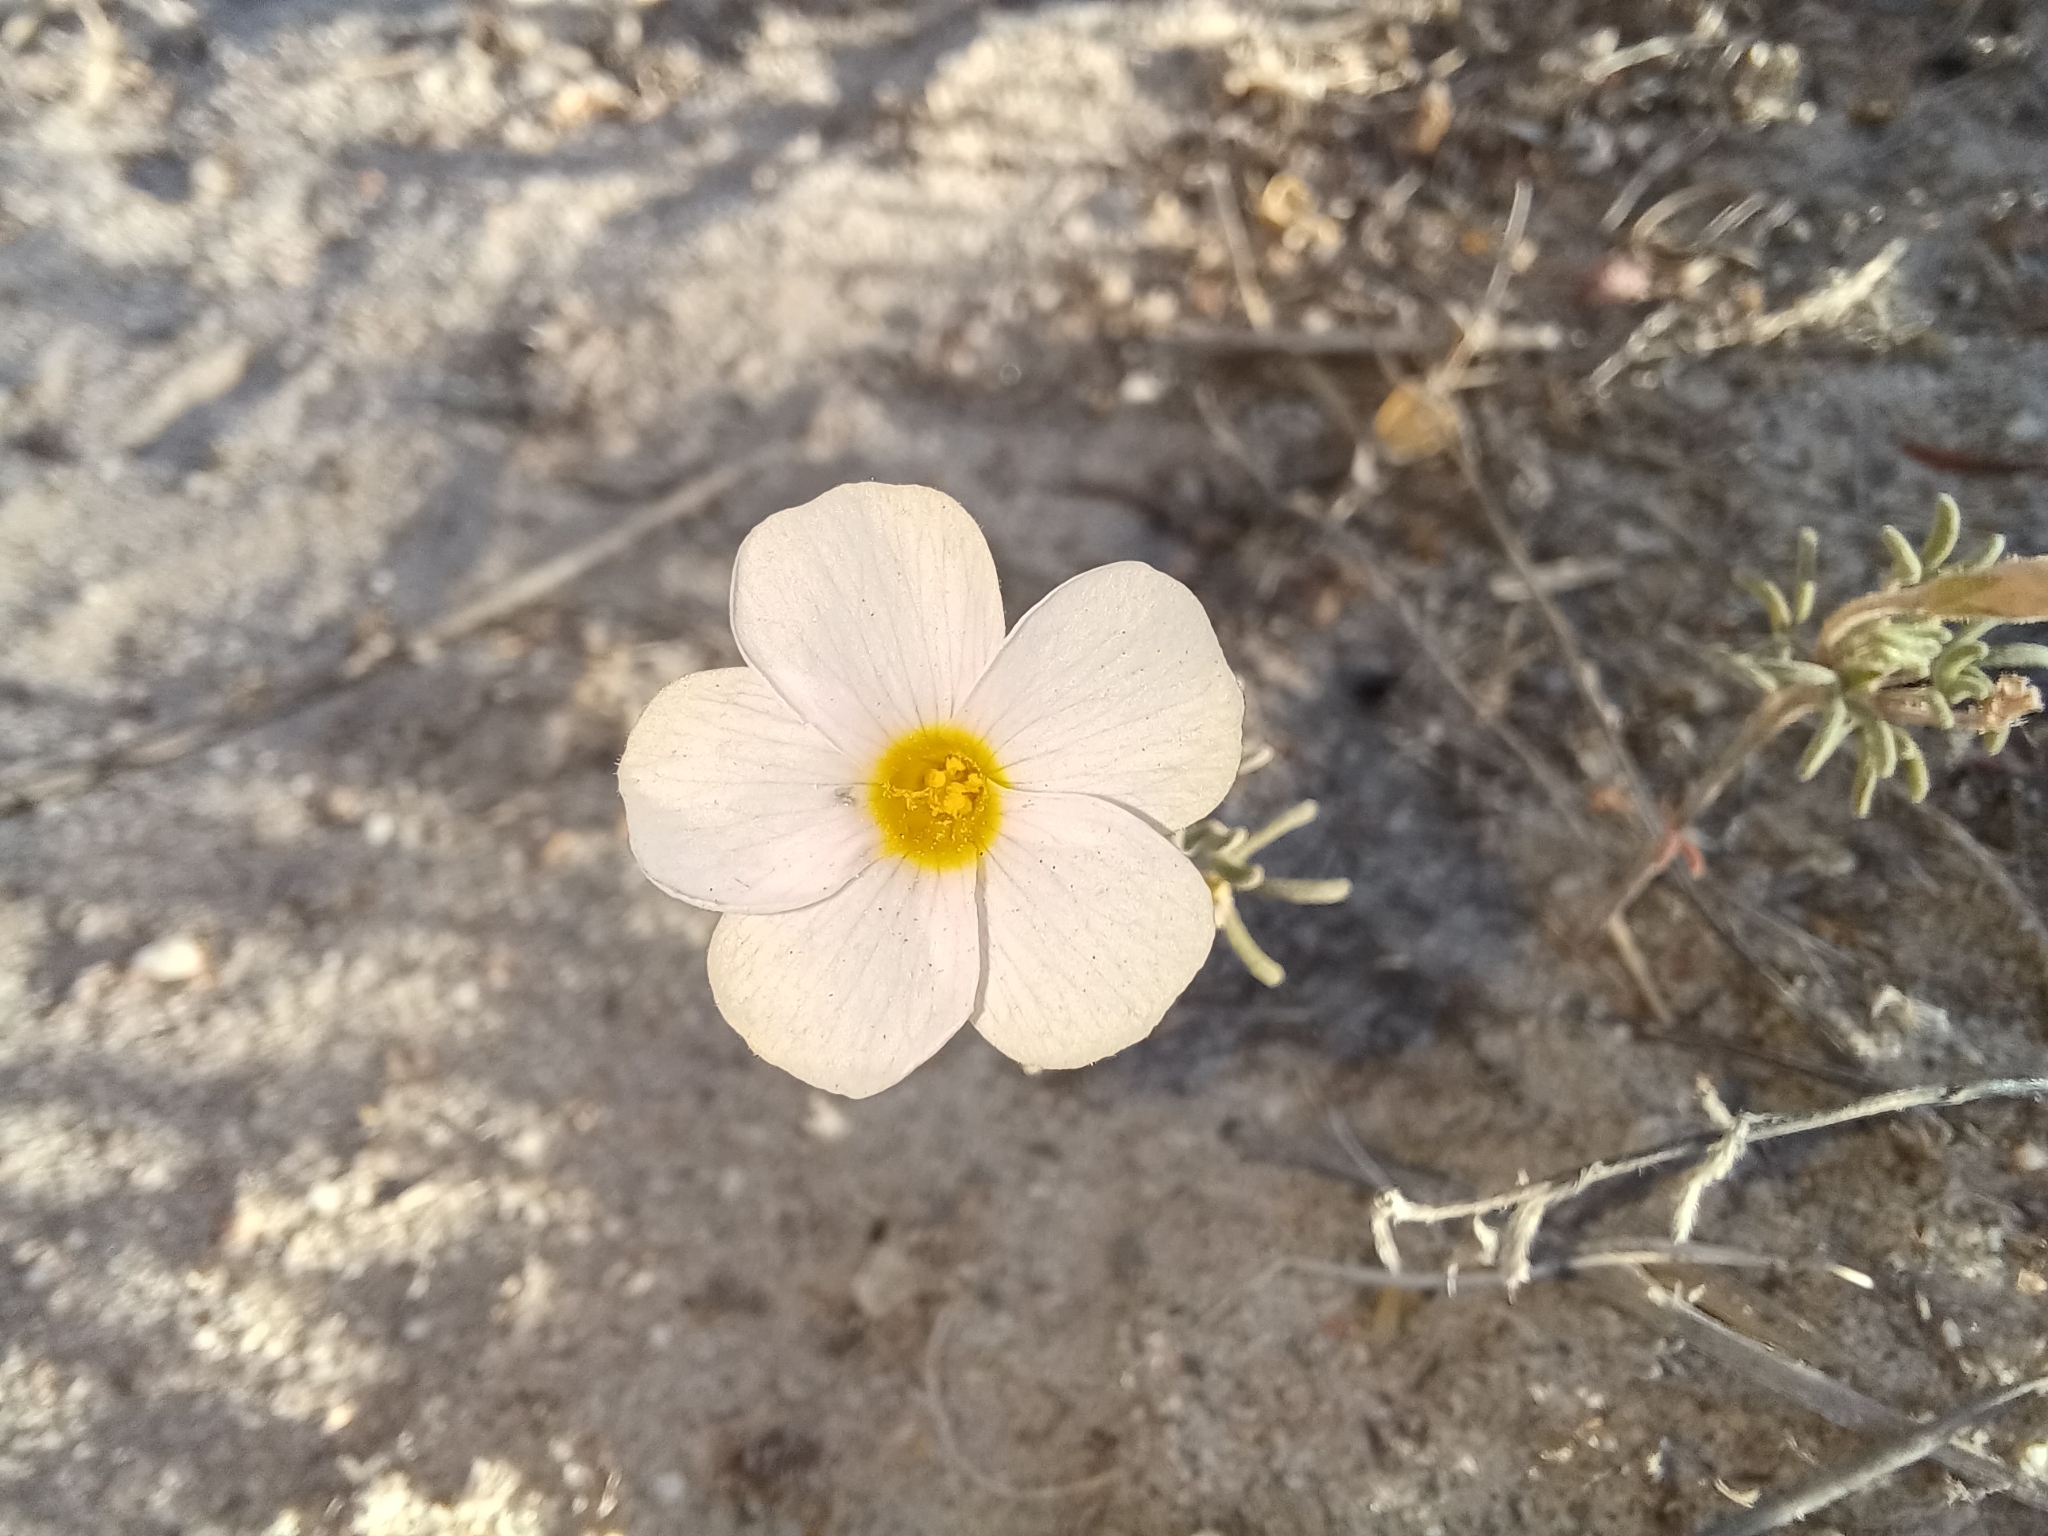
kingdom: Plantae
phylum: Tracheophyta
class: Magnoliopsida
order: Oxalidales
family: Oxalidaceae
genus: Oxalis
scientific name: Oxalis ciliaris
